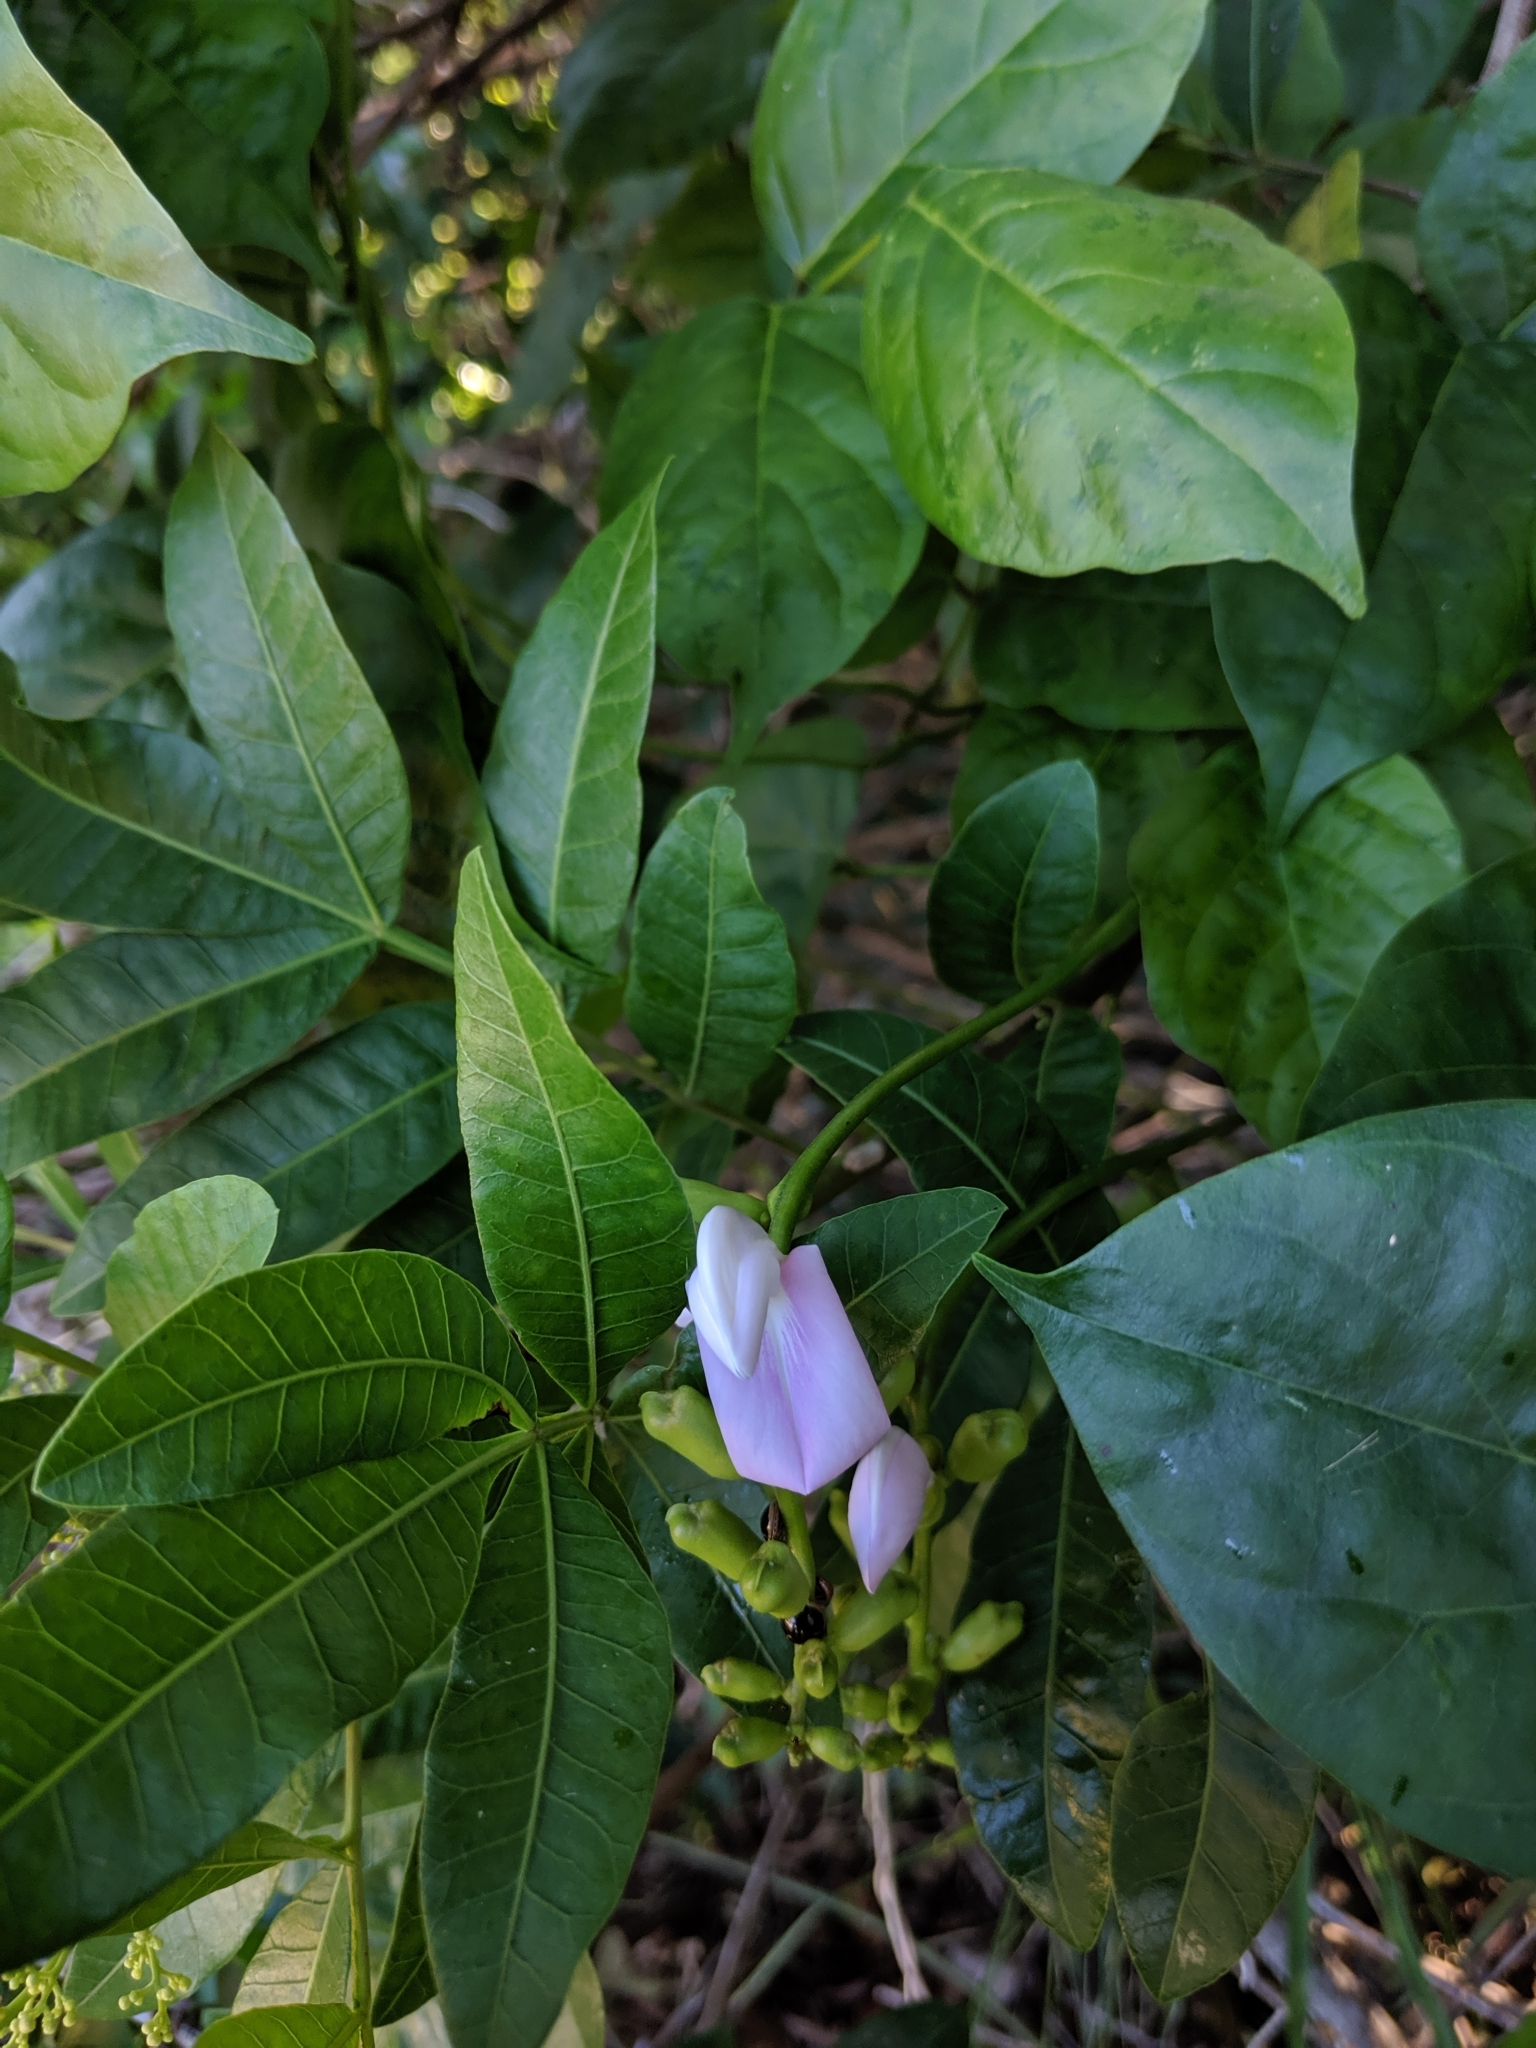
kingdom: Plantae
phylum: Tracheophyta
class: Magnoliopsida
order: Fabales
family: Fabaceae
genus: Canavalia
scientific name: Canavalia cathartica
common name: Maunaloa
